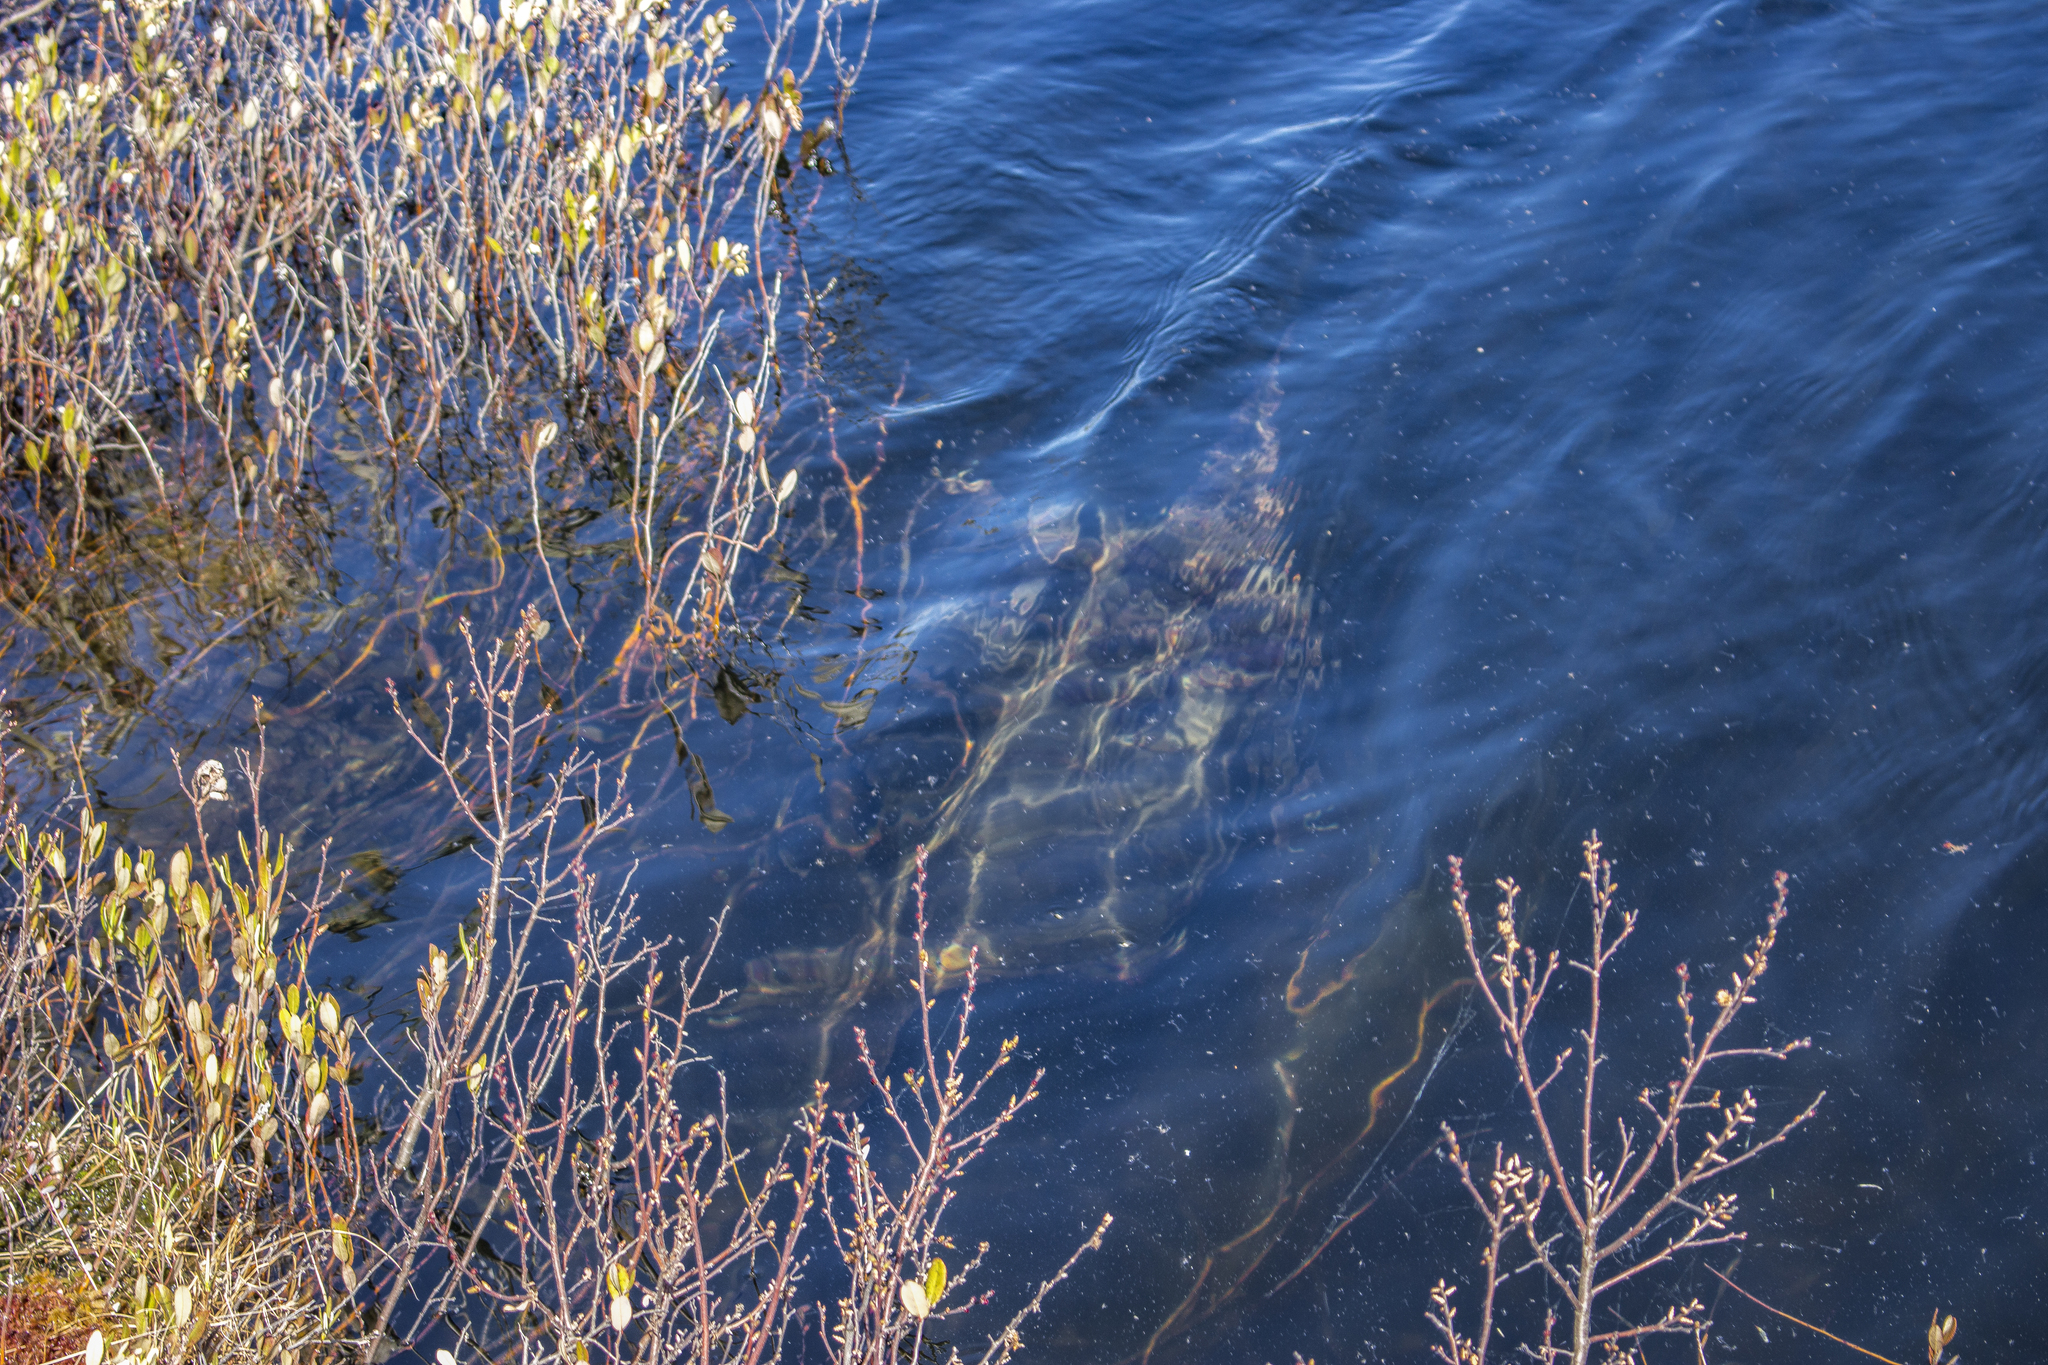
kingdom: Animalia
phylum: Chordata
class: Testudines
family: Chelydridae
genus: Chelydra
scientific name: Chelydra serpentina
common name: Common snapping turtle
